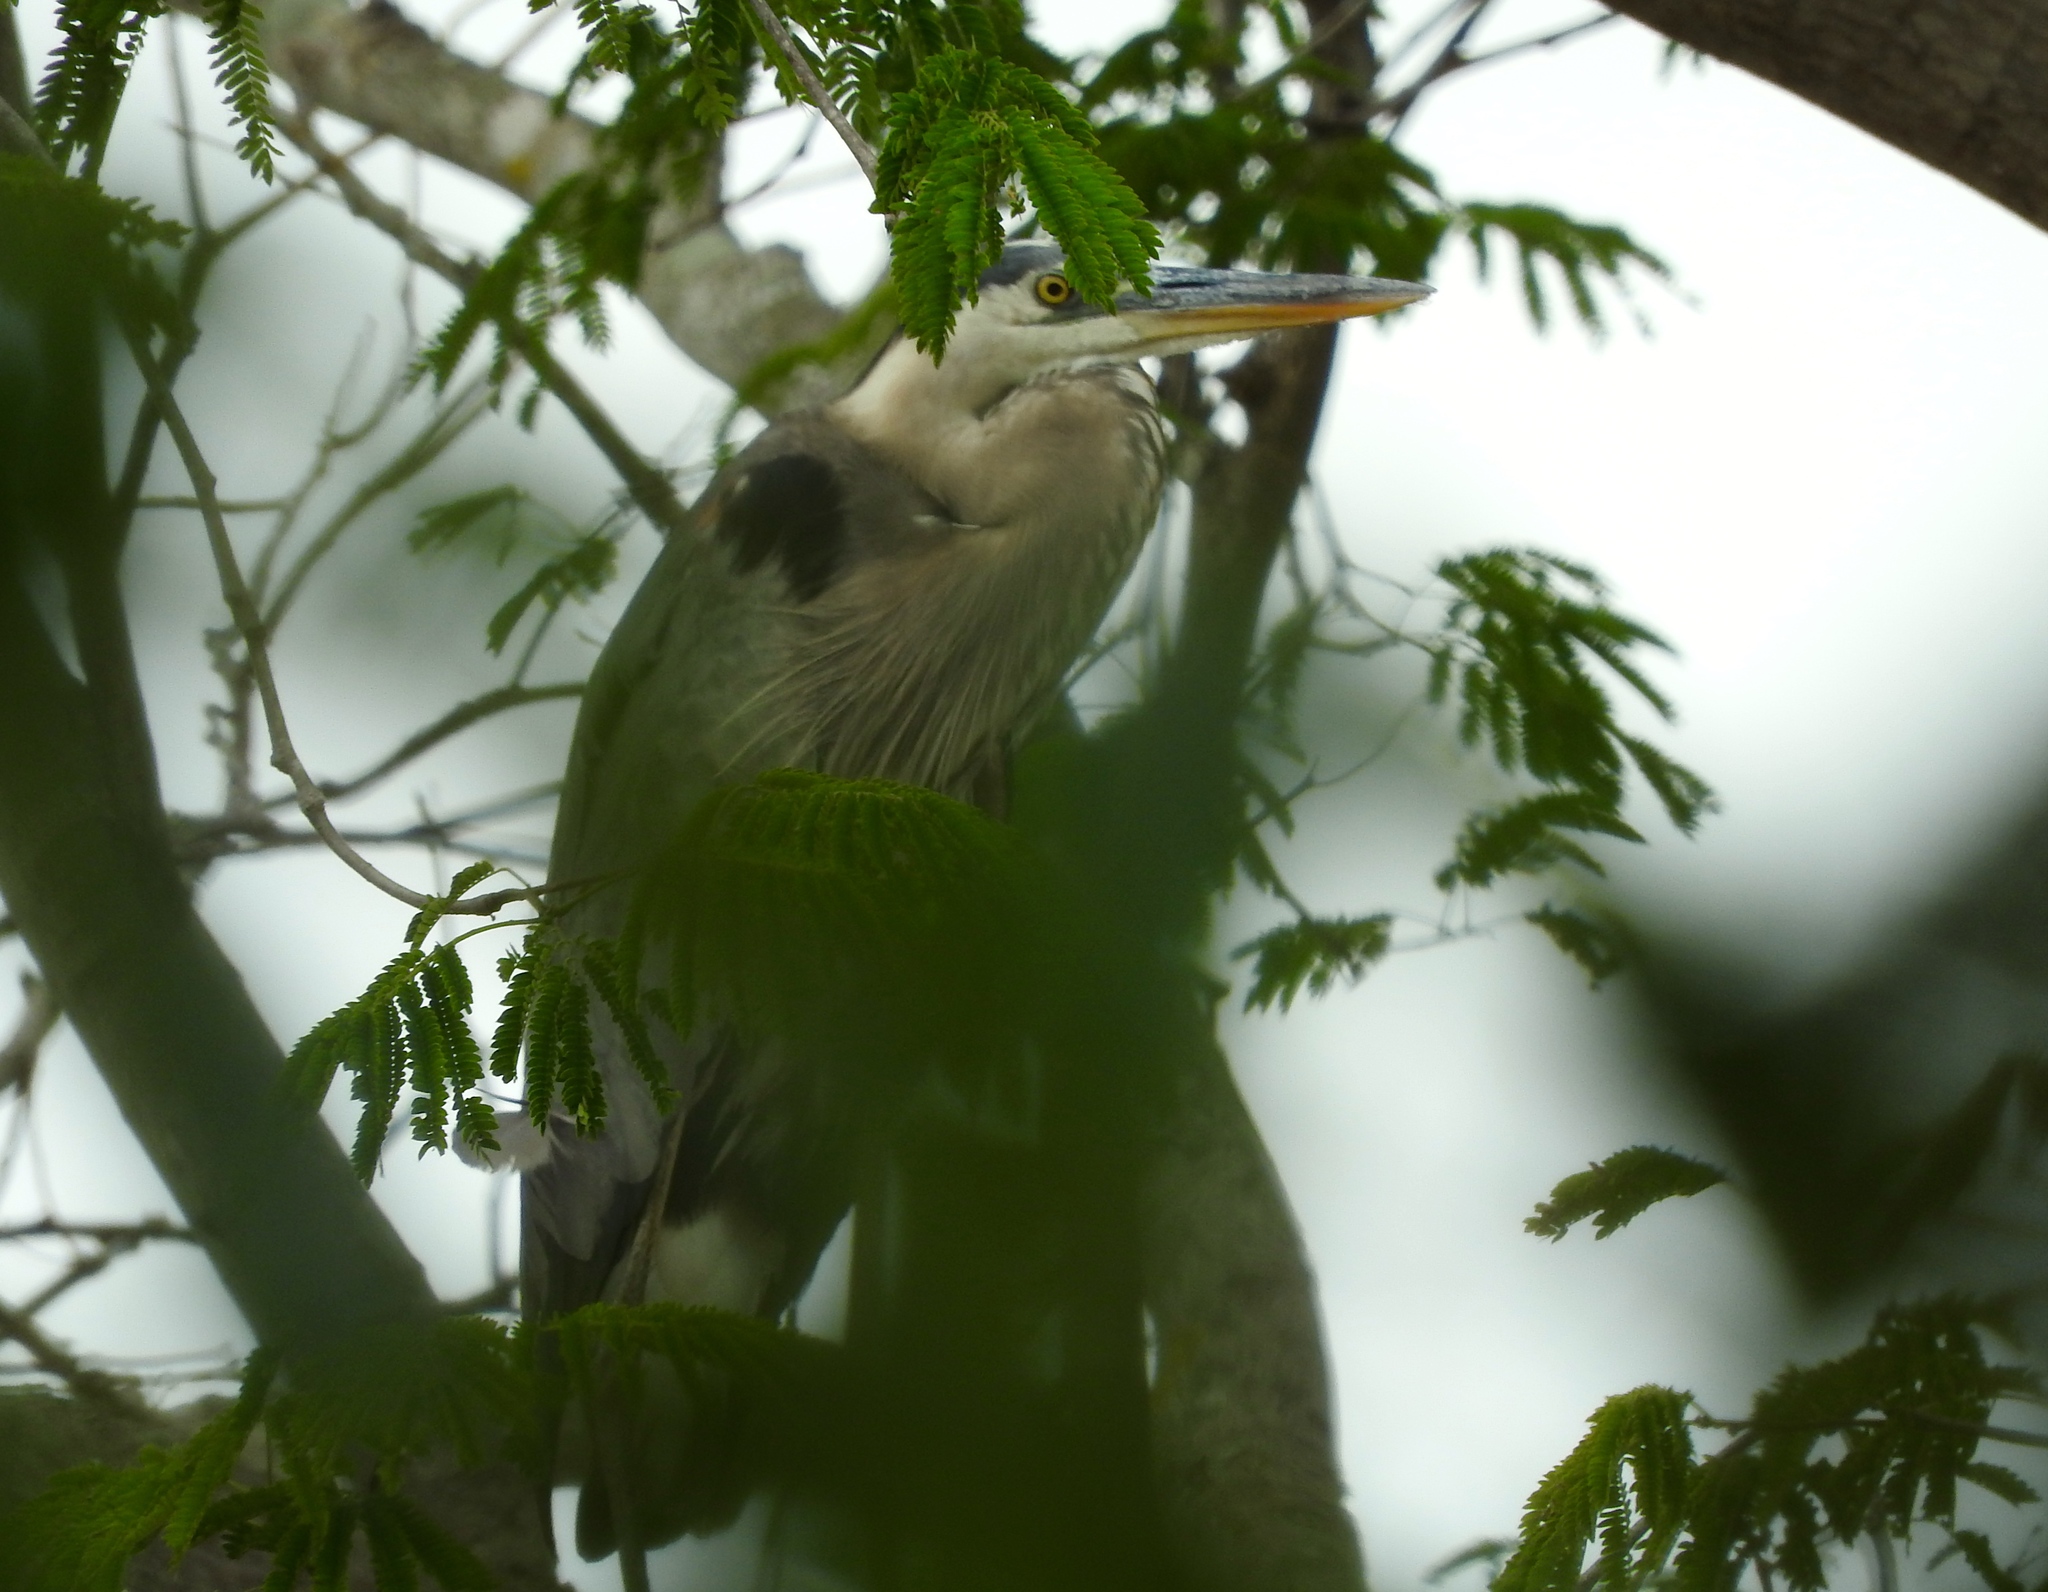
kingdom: Animalia
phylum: Chordata
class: Aves
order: Pelecaniformes
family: Ardeidae
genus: Ardea
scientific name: Ardea herodias
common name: Great blue heron
